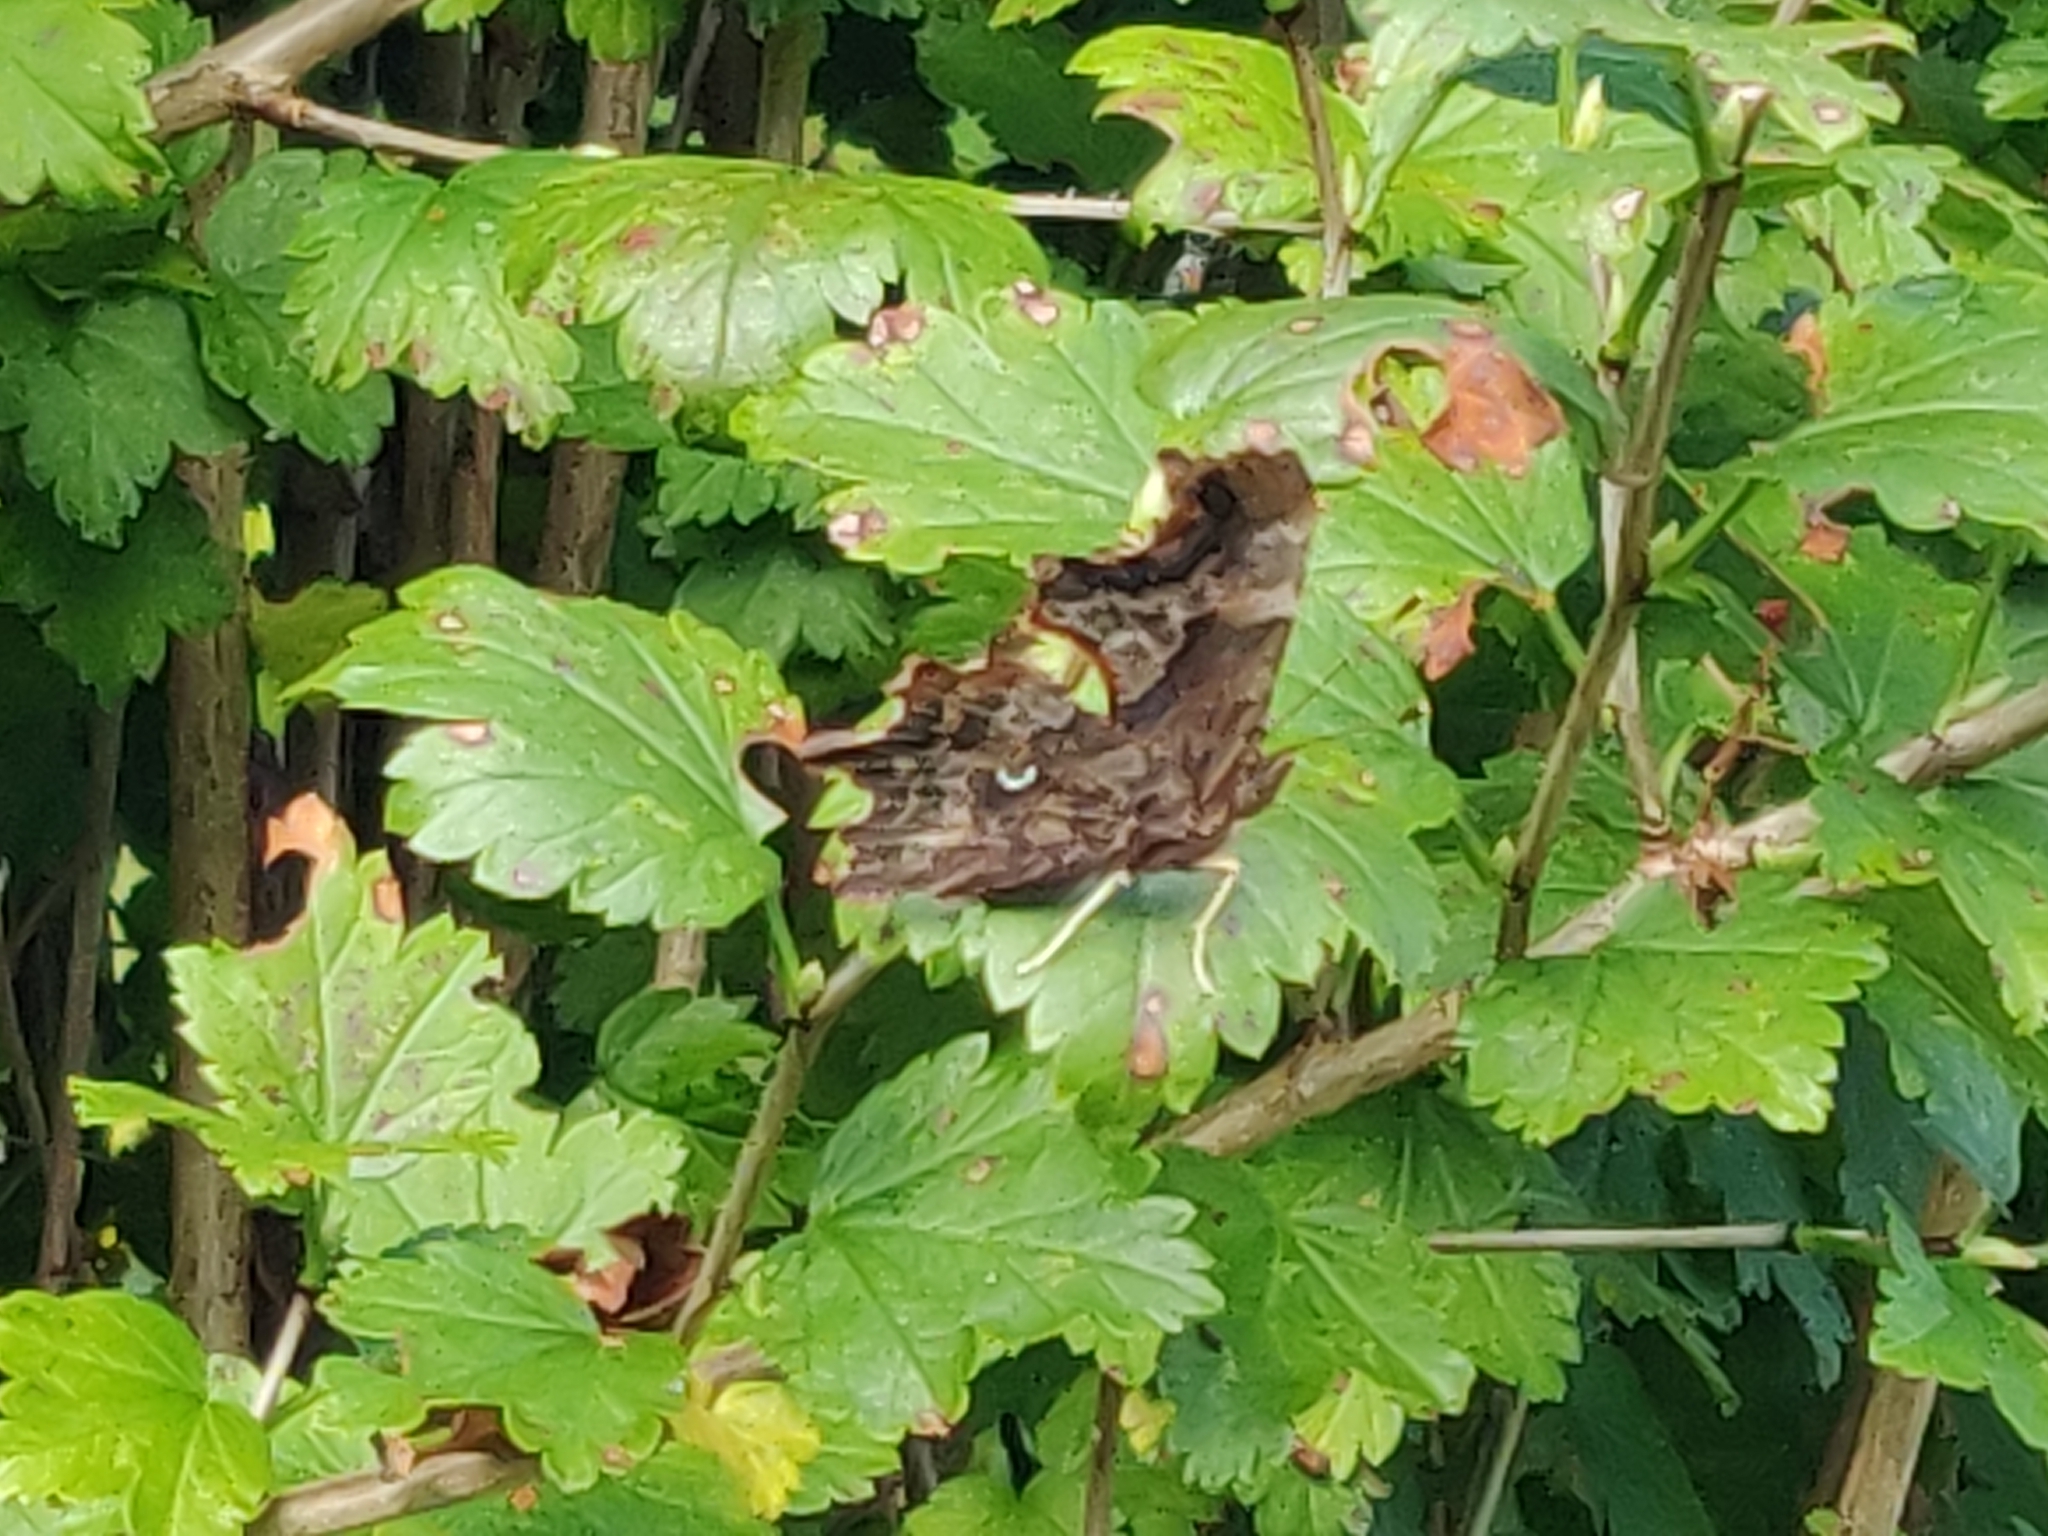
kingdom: Animalia
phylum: Arthropoda
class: Insecta
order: Lepidoptera
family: Nymphalidae
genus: Polygonia
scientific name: Polygonia c-album
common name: Comma
